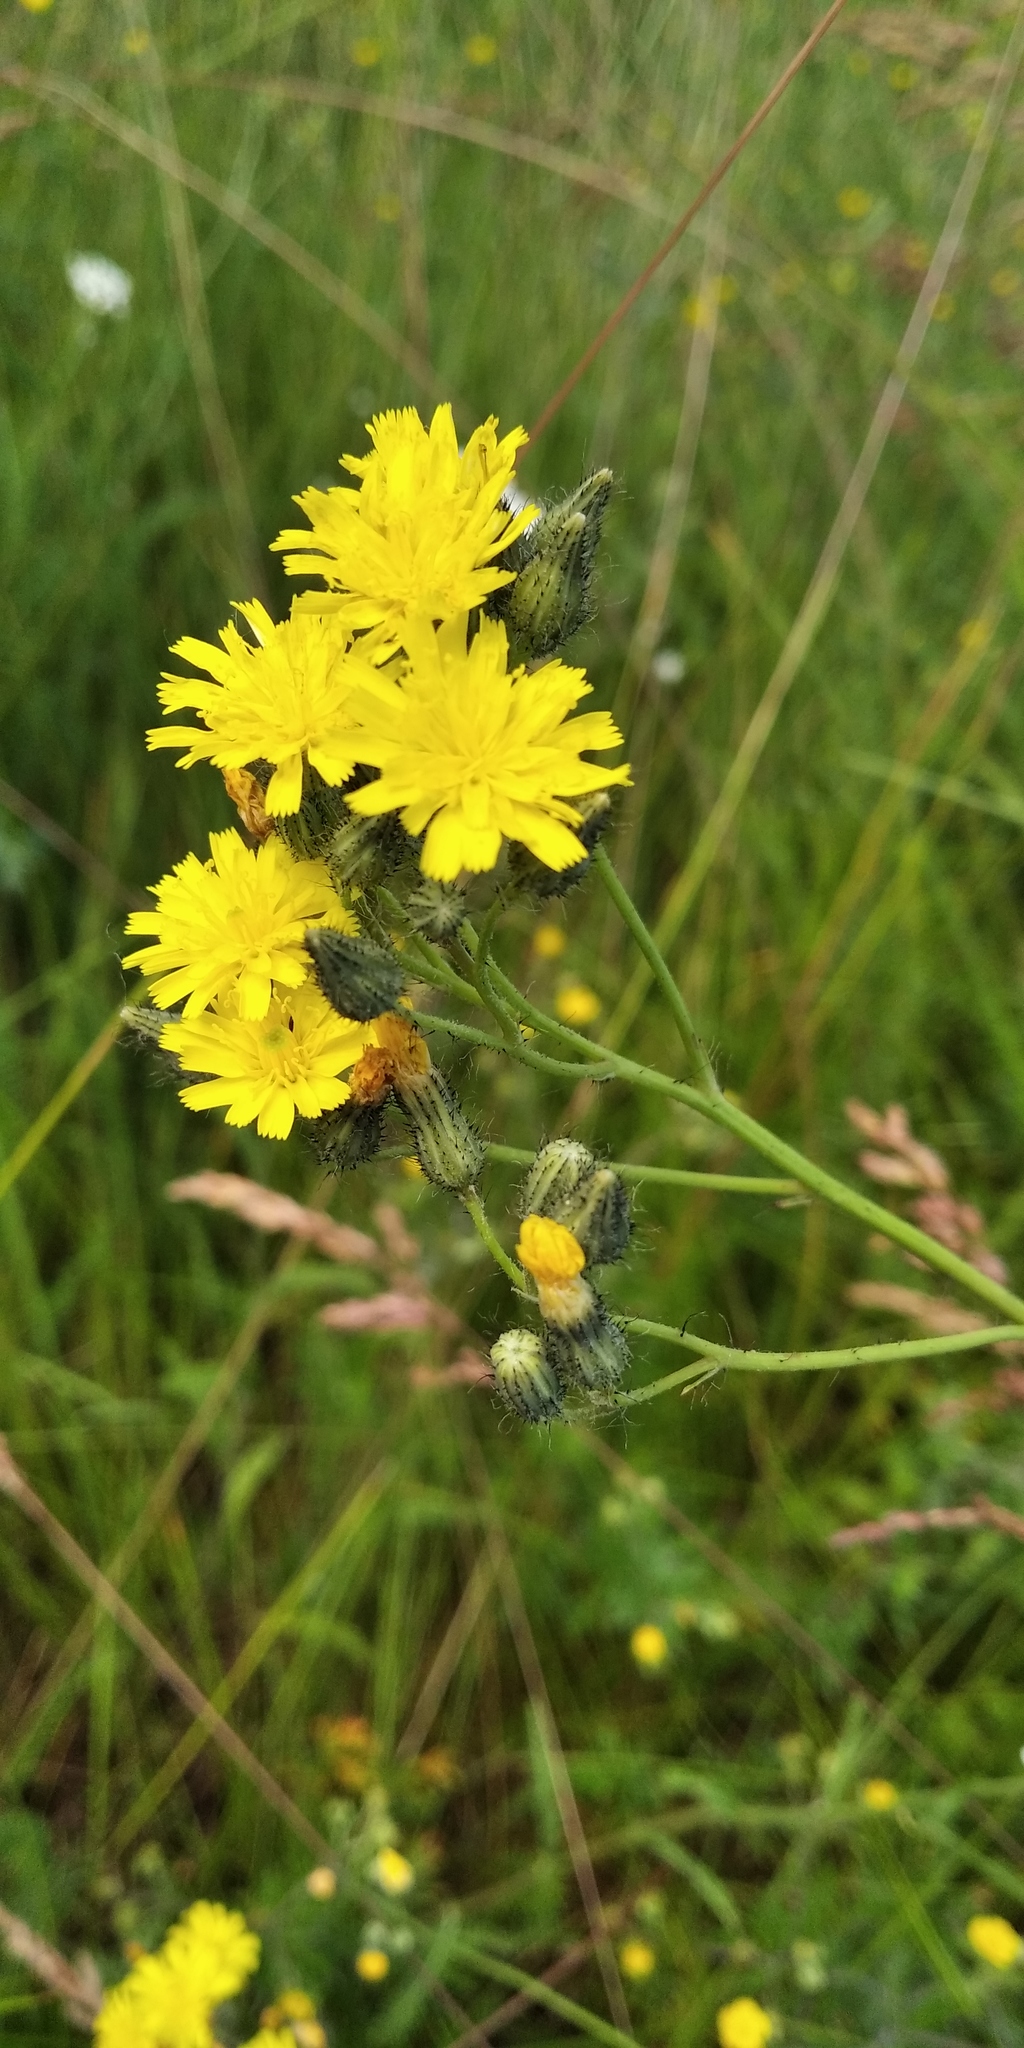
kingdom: Plantae
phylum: Tracheophyta
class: Magnoliopsida
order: Asterales
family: Asteraceae
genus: Picris
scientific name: Picris hieracioides
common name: Hawkweed oxtongue
